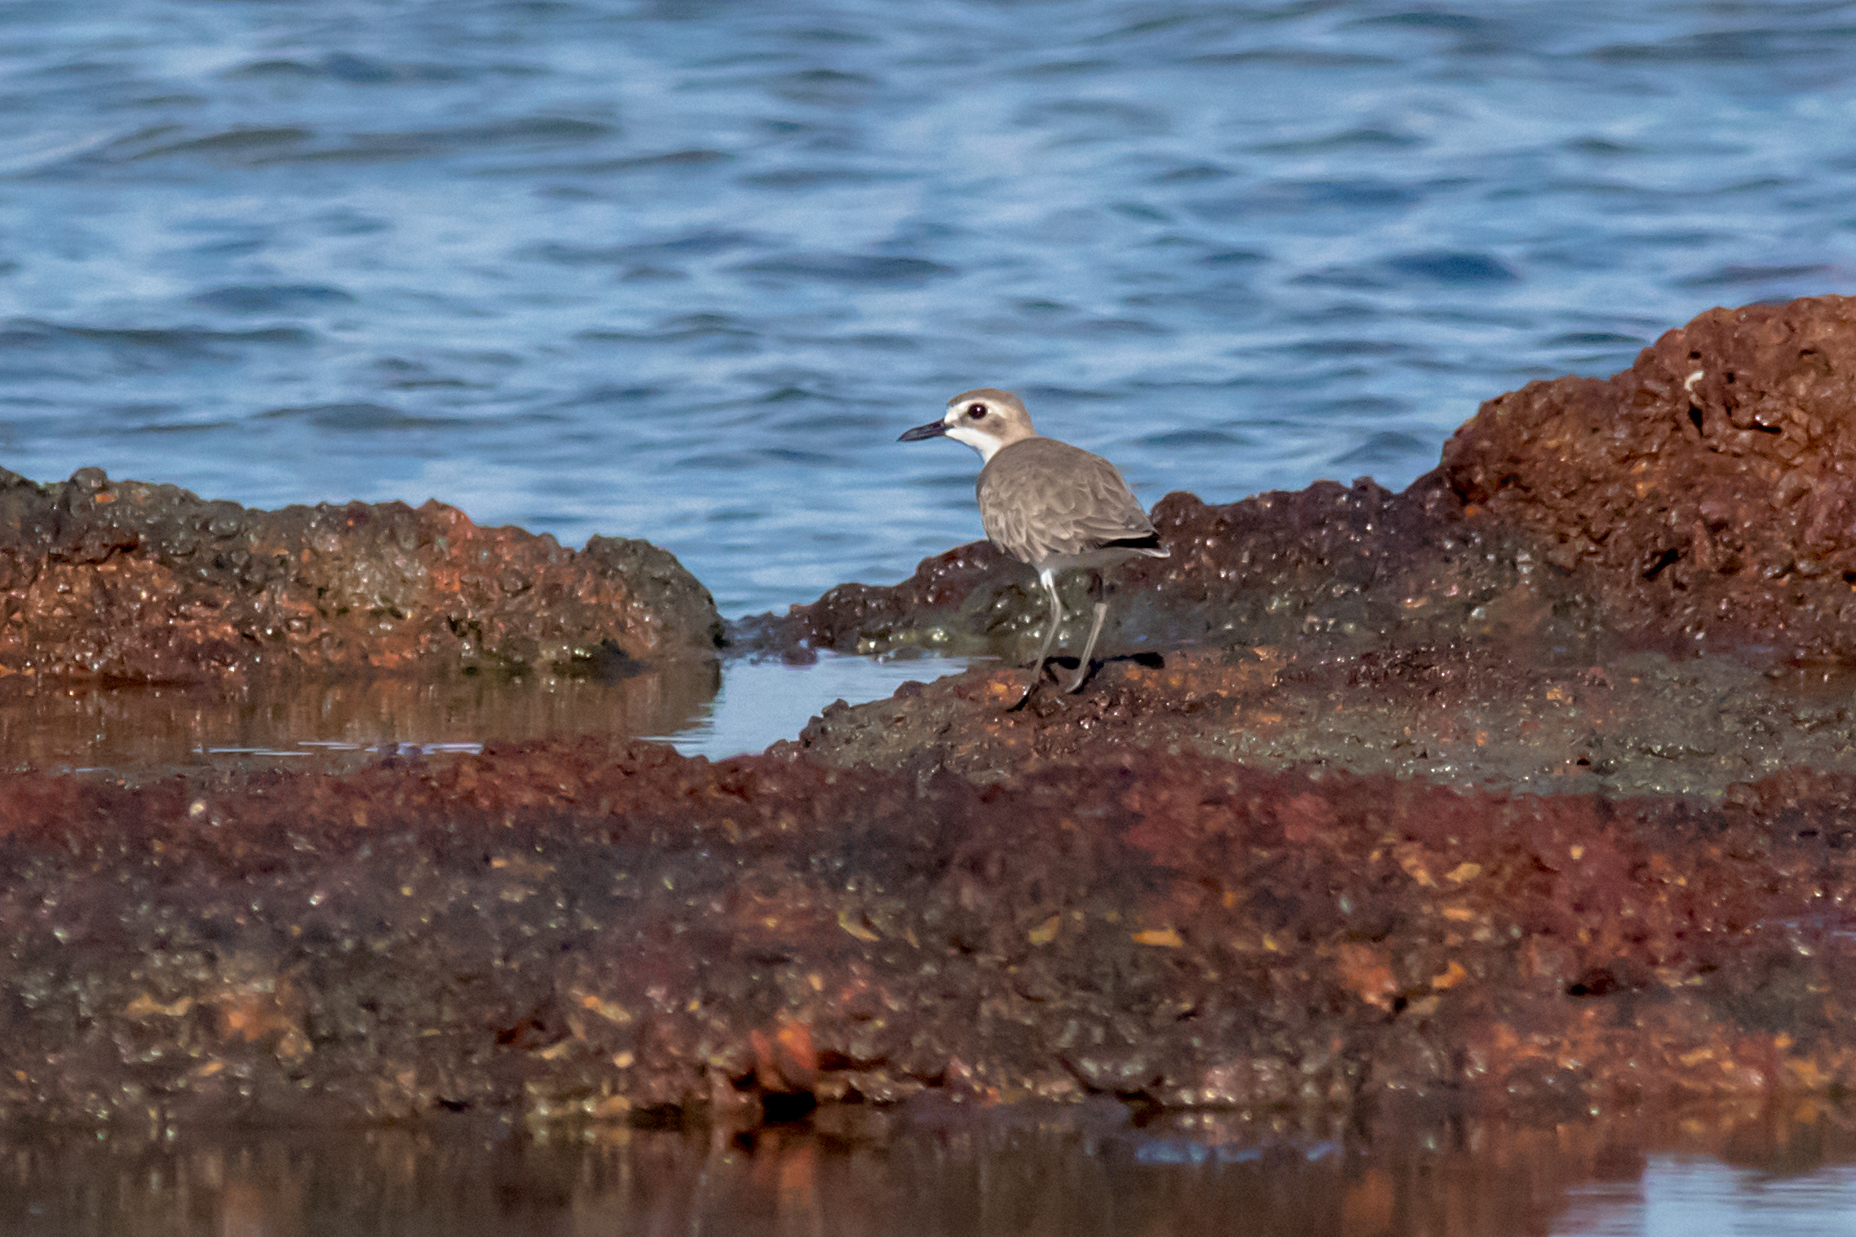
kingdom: Animalia
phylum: Chordata
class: Aves
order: Charadriiformes
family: Charadriidae
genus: Charadrius
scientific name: Charadrius leschenaultii
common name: Greater sand plover
